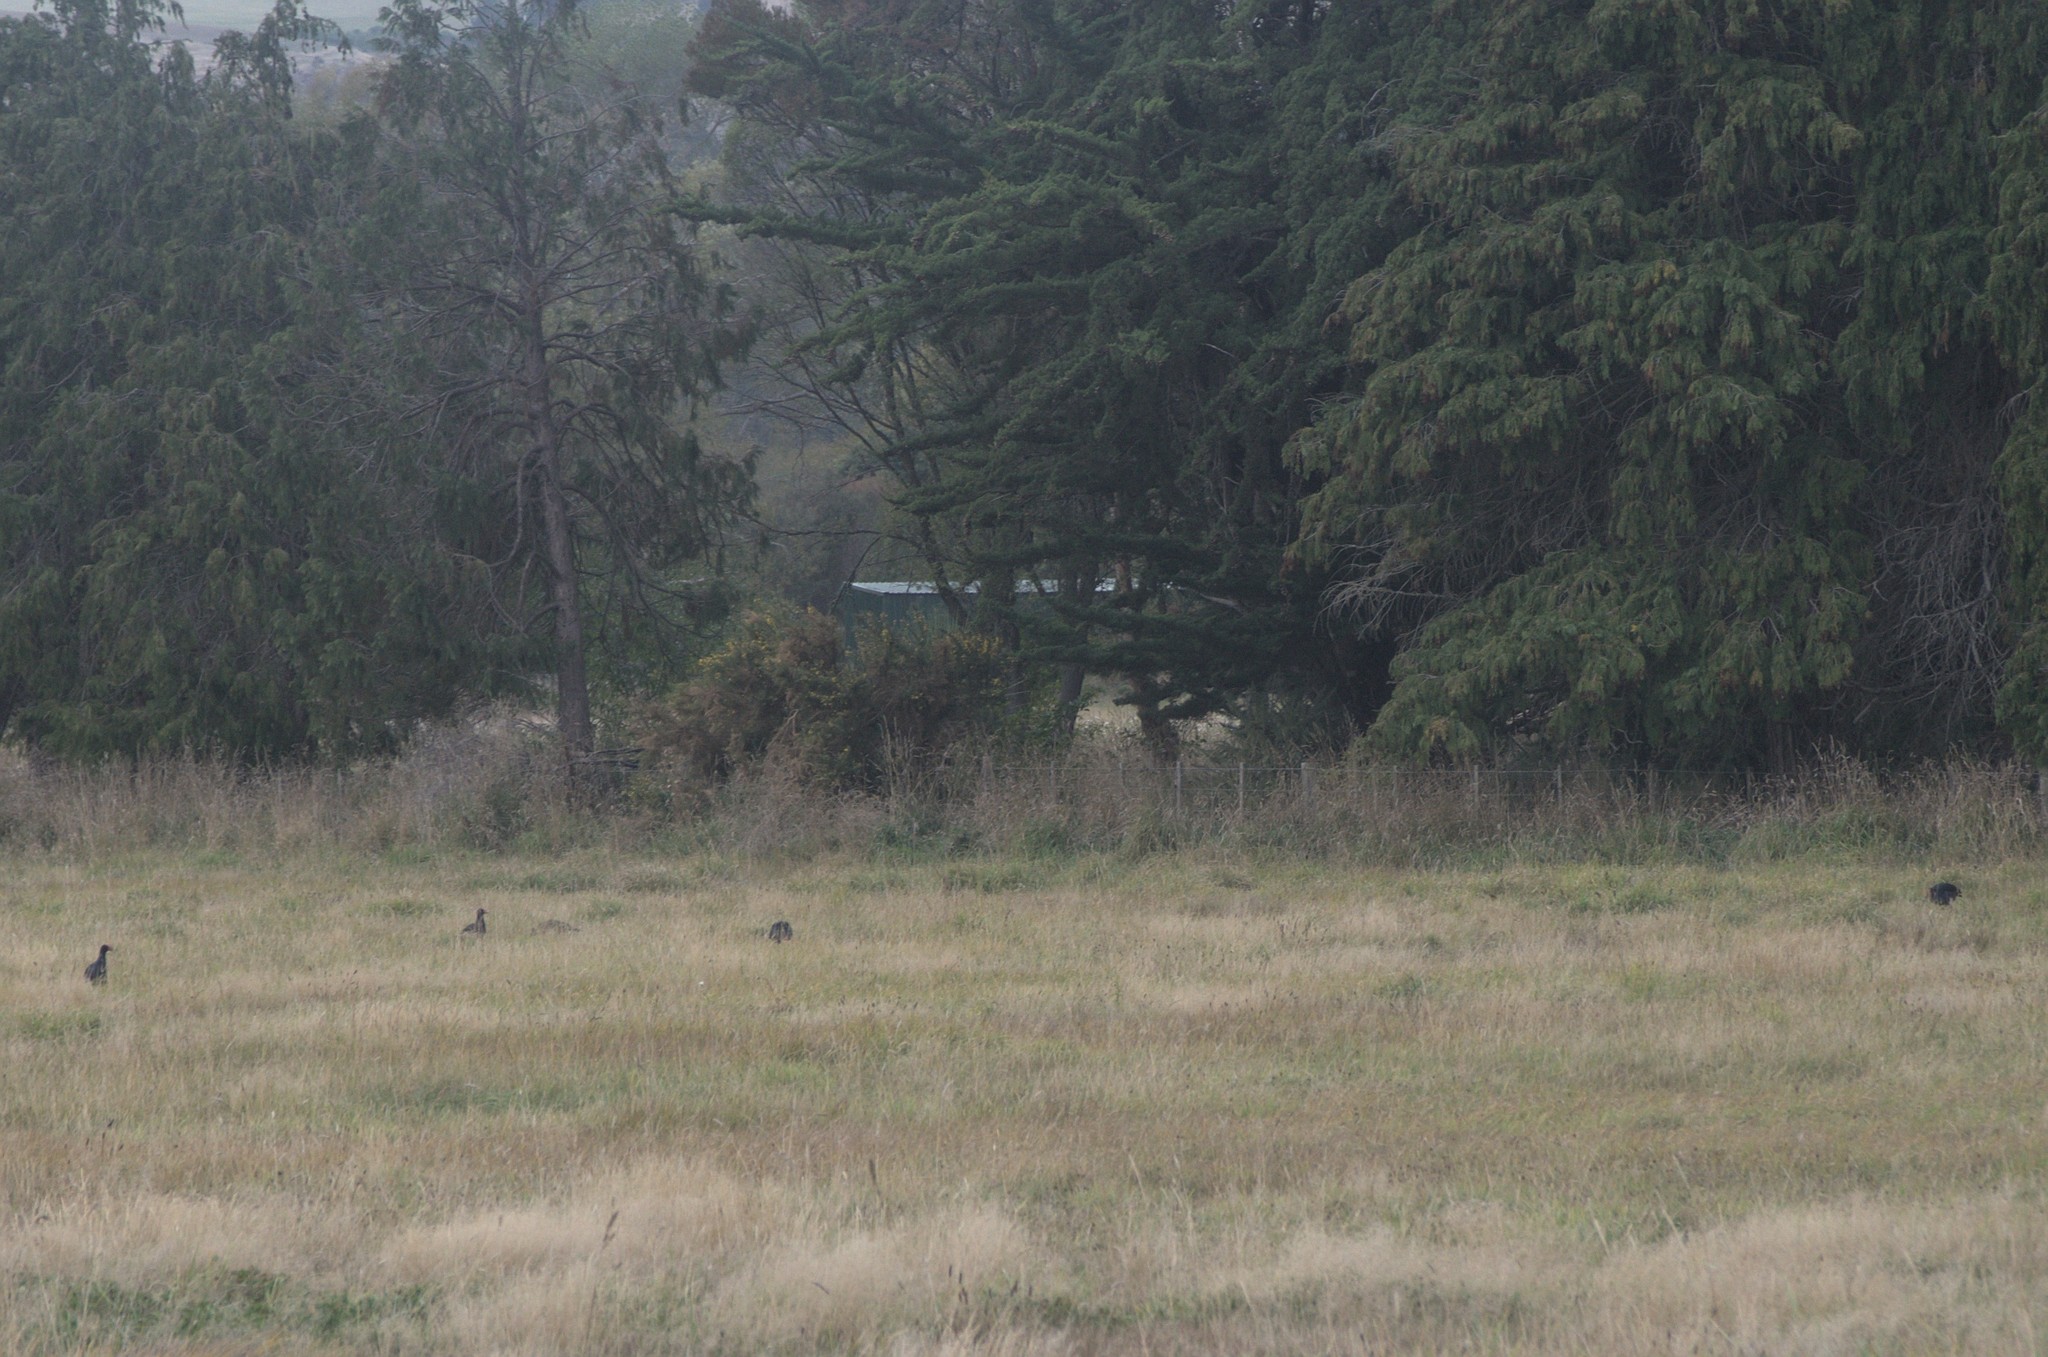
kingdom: Animalia
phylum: Chordata
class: Aves
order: Gruiformes
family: Rallidae
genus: Porphyrio
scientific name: Porphyrio melanotus
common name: Australasian swamphen
